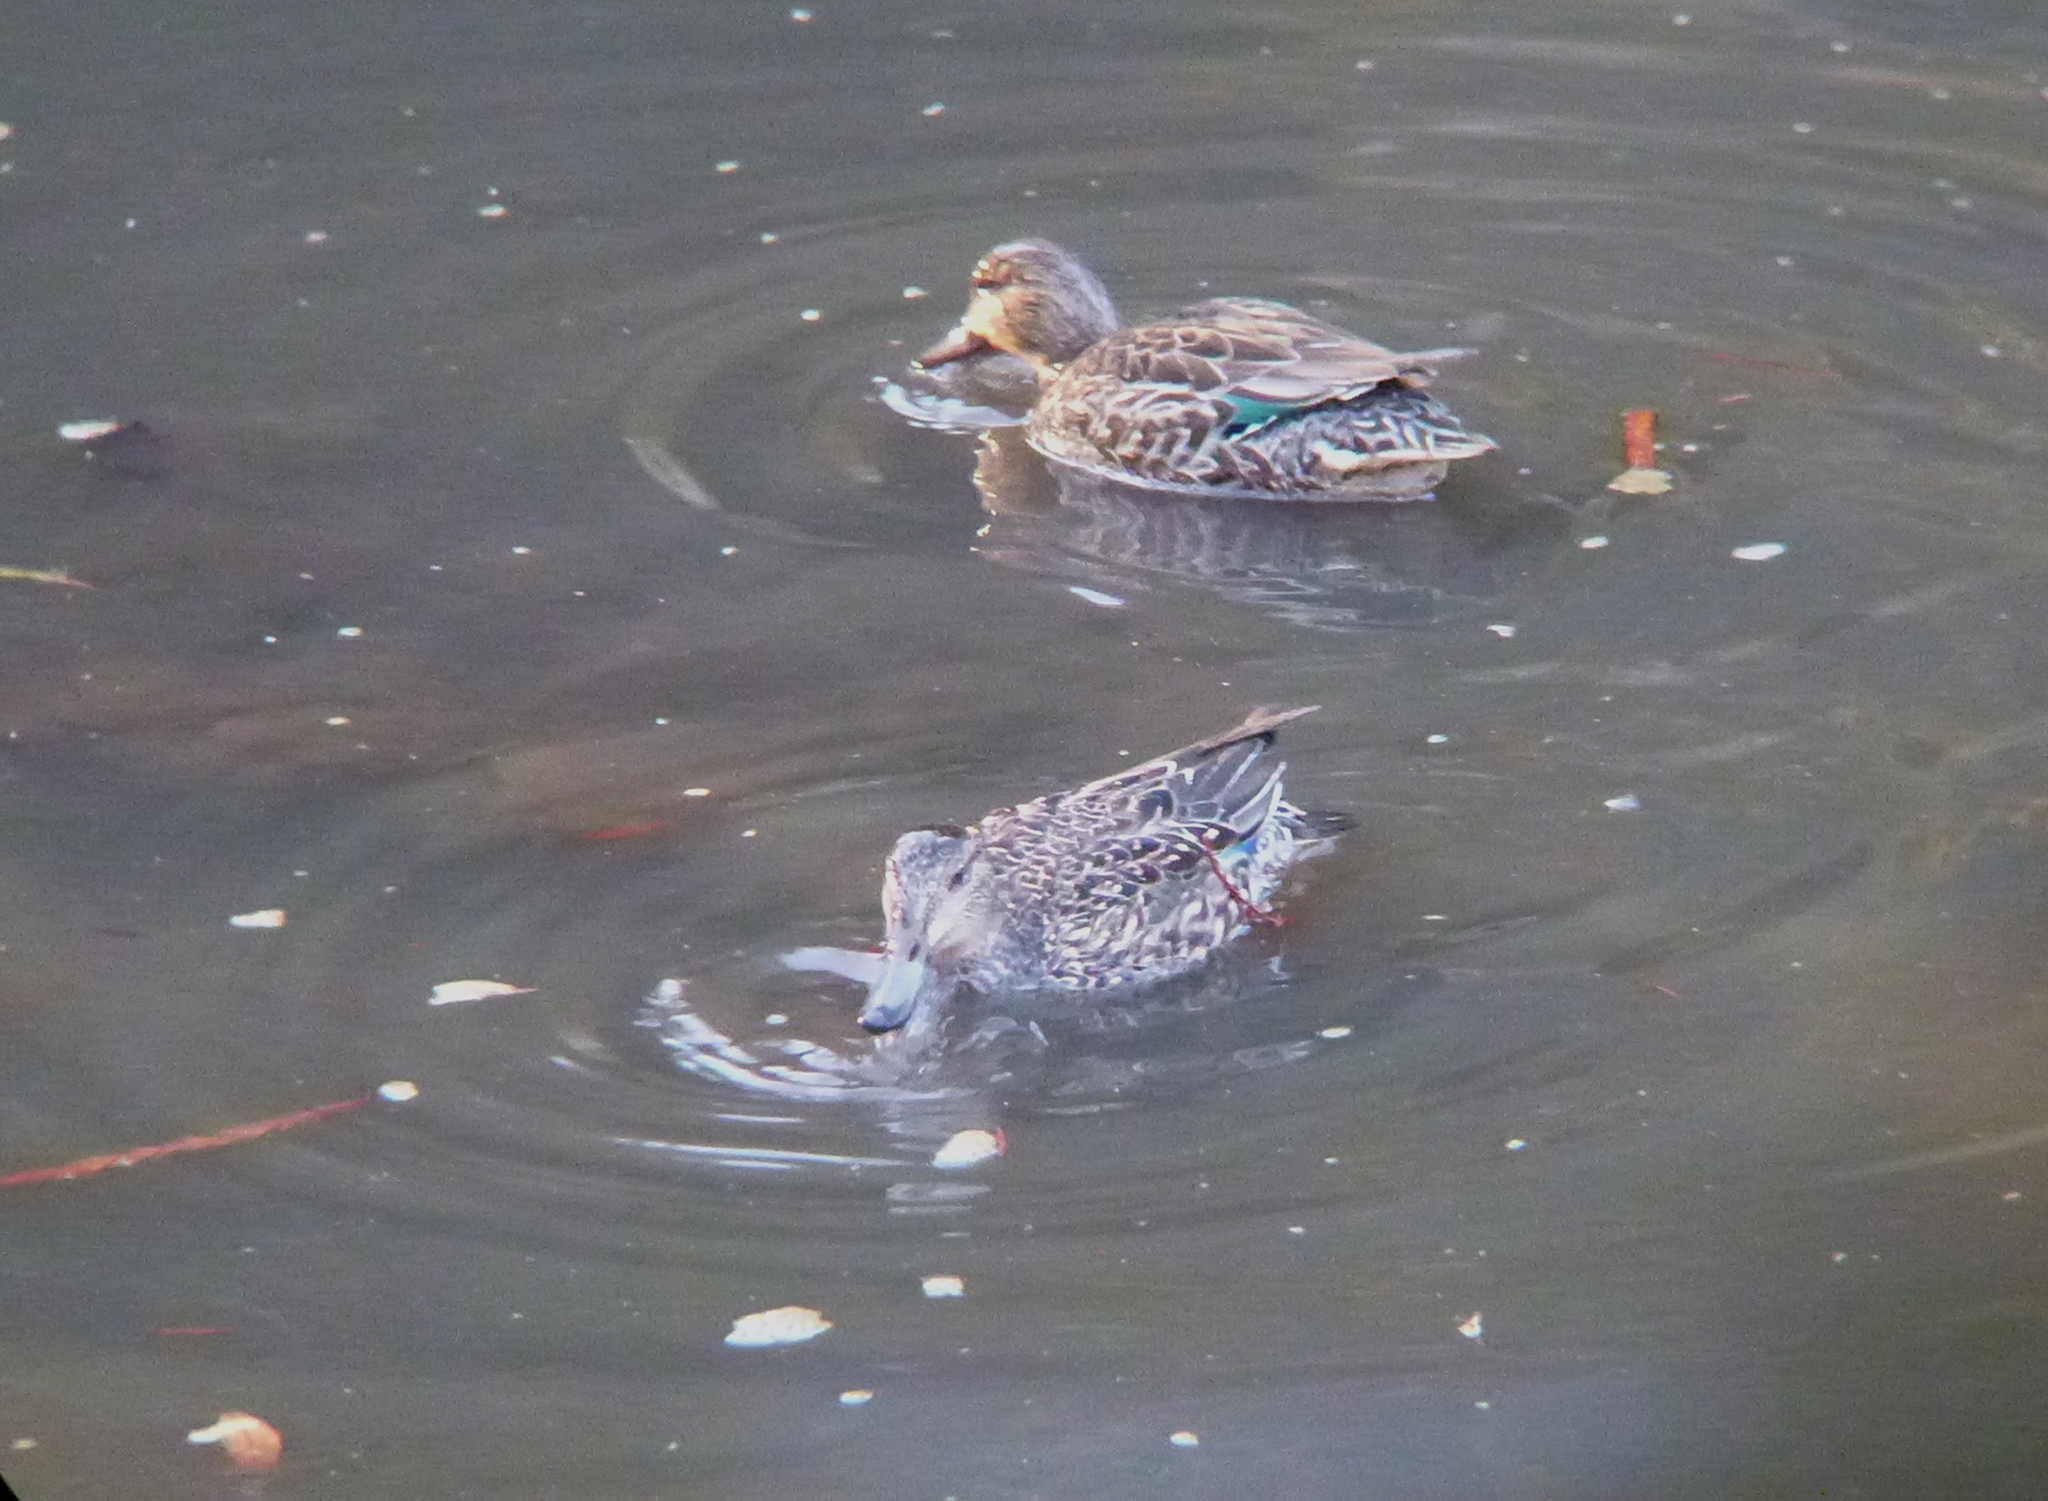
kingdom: Animalia
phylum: Chordata
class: Aves
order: Anseriformes
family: Anatidae
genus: Anas
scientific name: Anas crecca
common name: Eurasian teal
